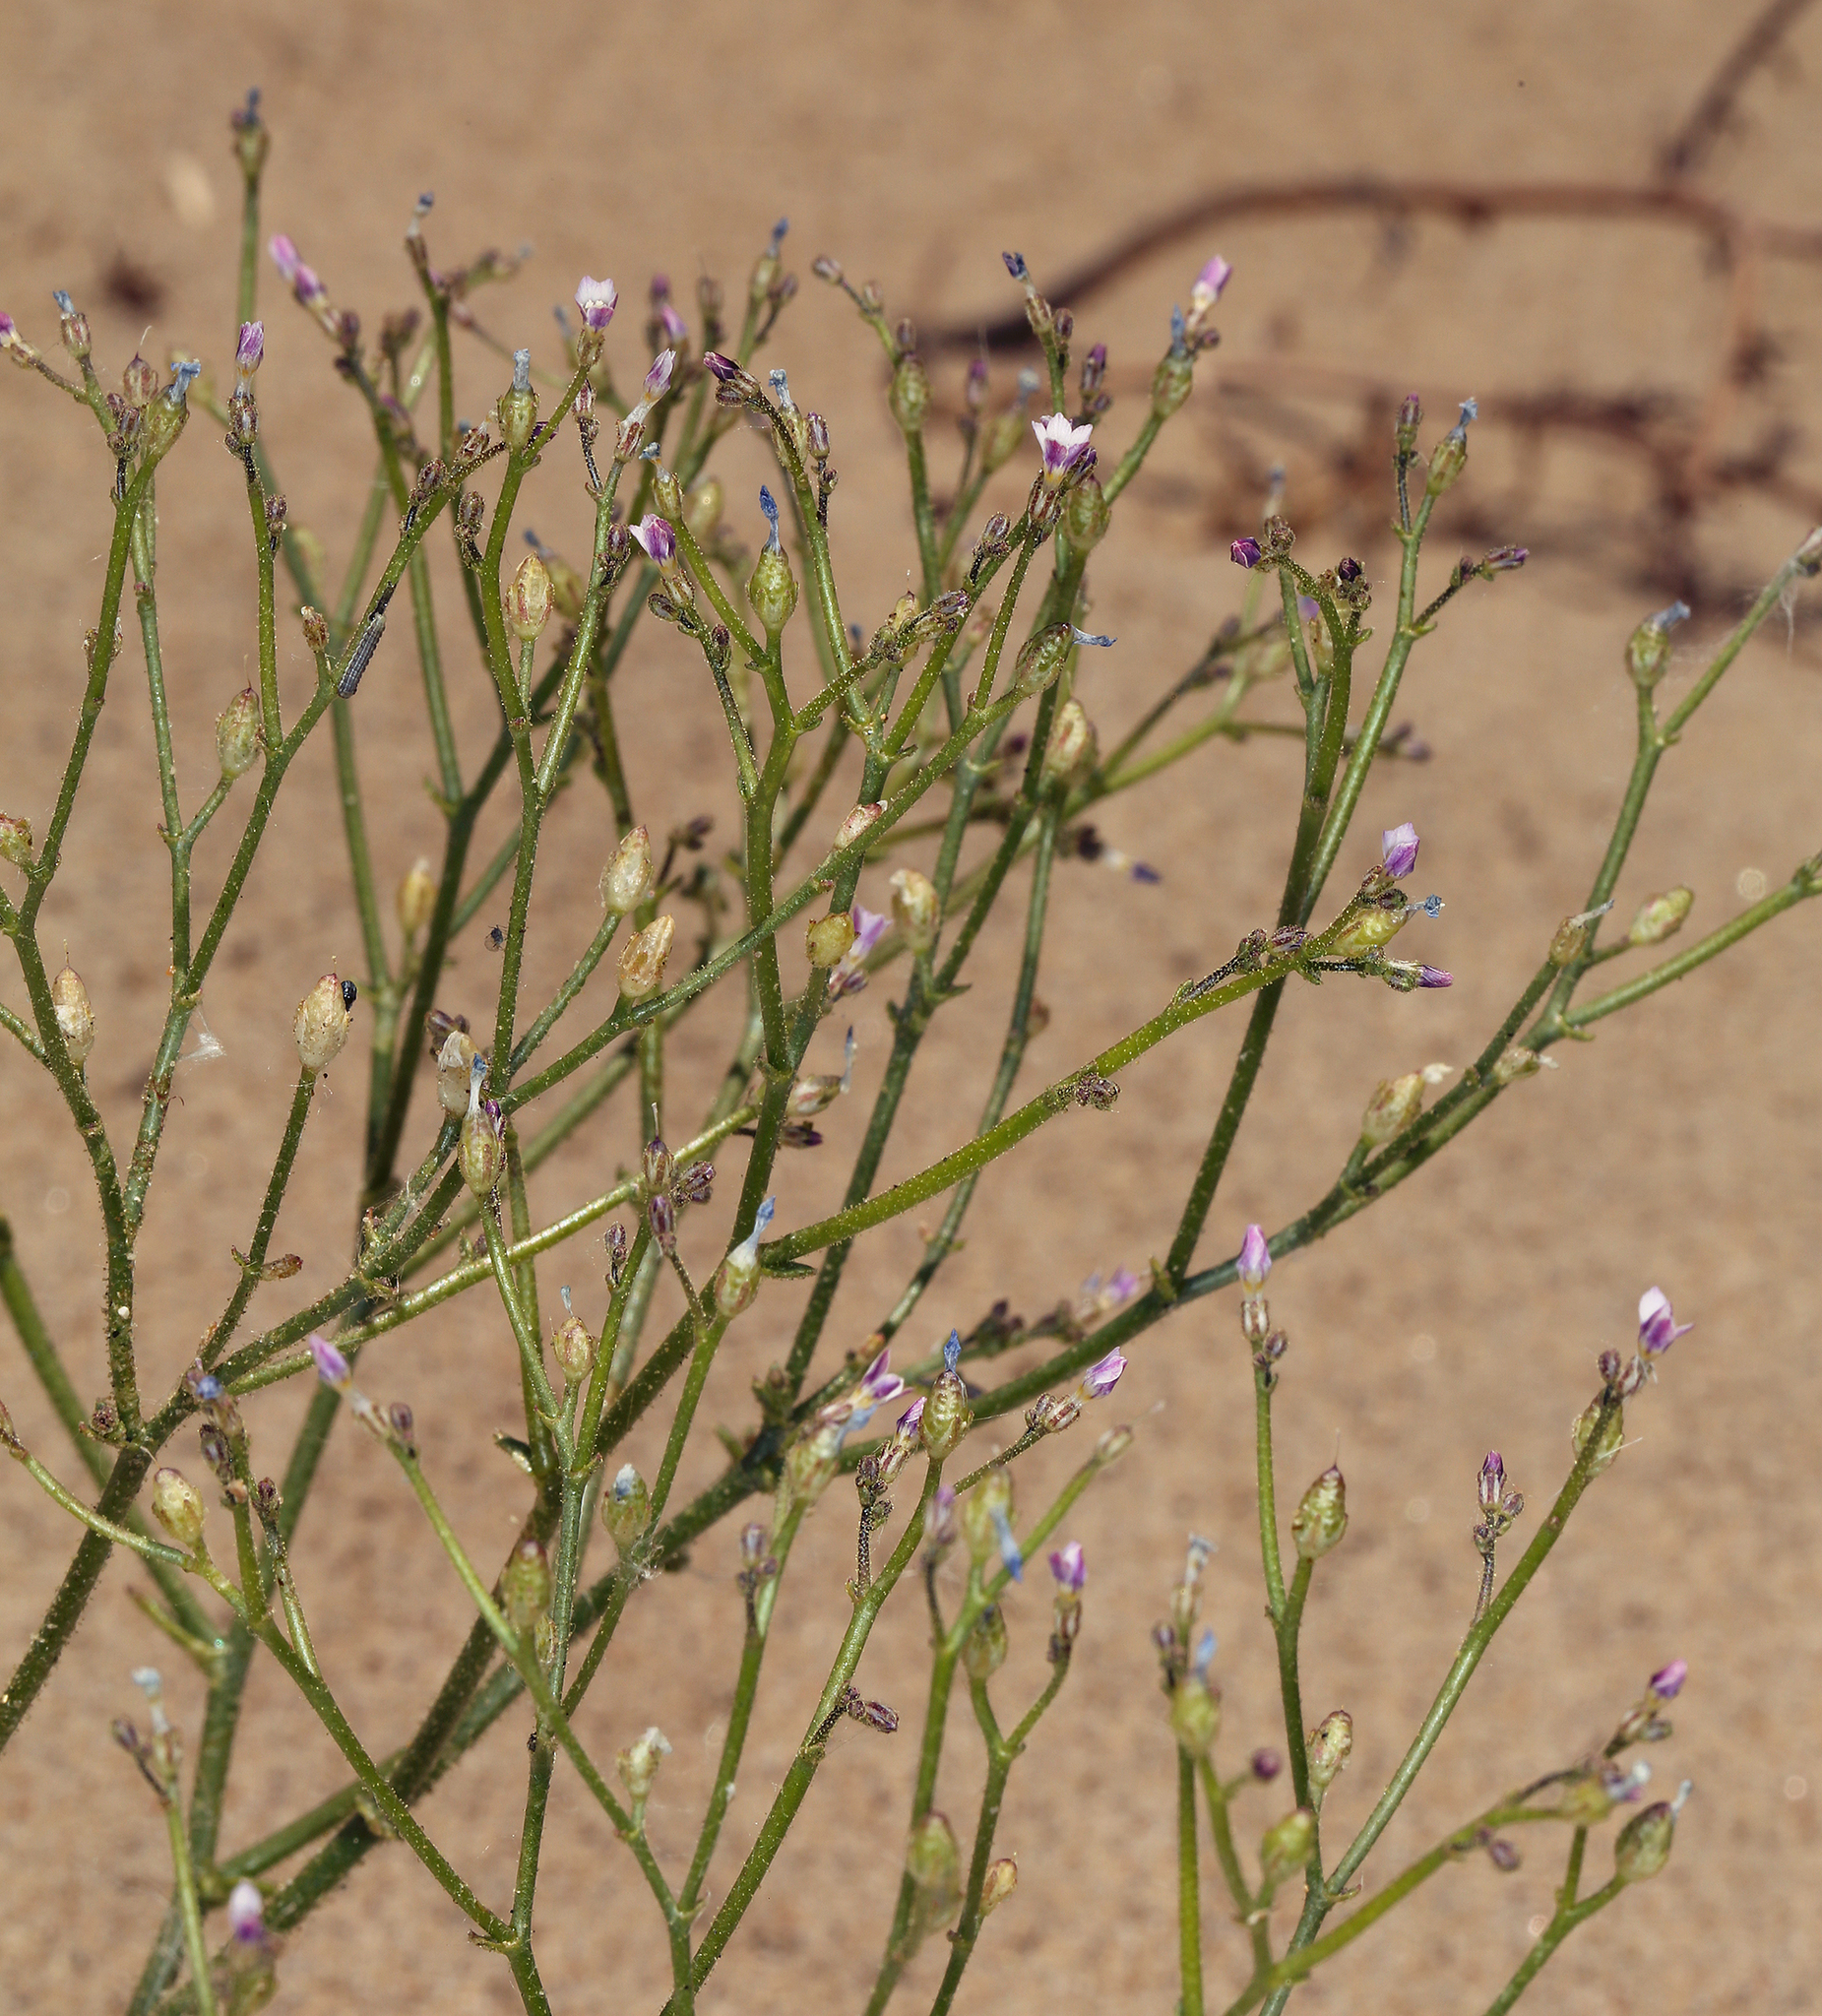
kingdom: Plantae
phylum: Tracheophyta
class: Magnoliopsida
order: Ericales
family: Polemoniaceae
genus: Aliciella
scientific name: Aliciella lottiae
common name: Lott's gilia
